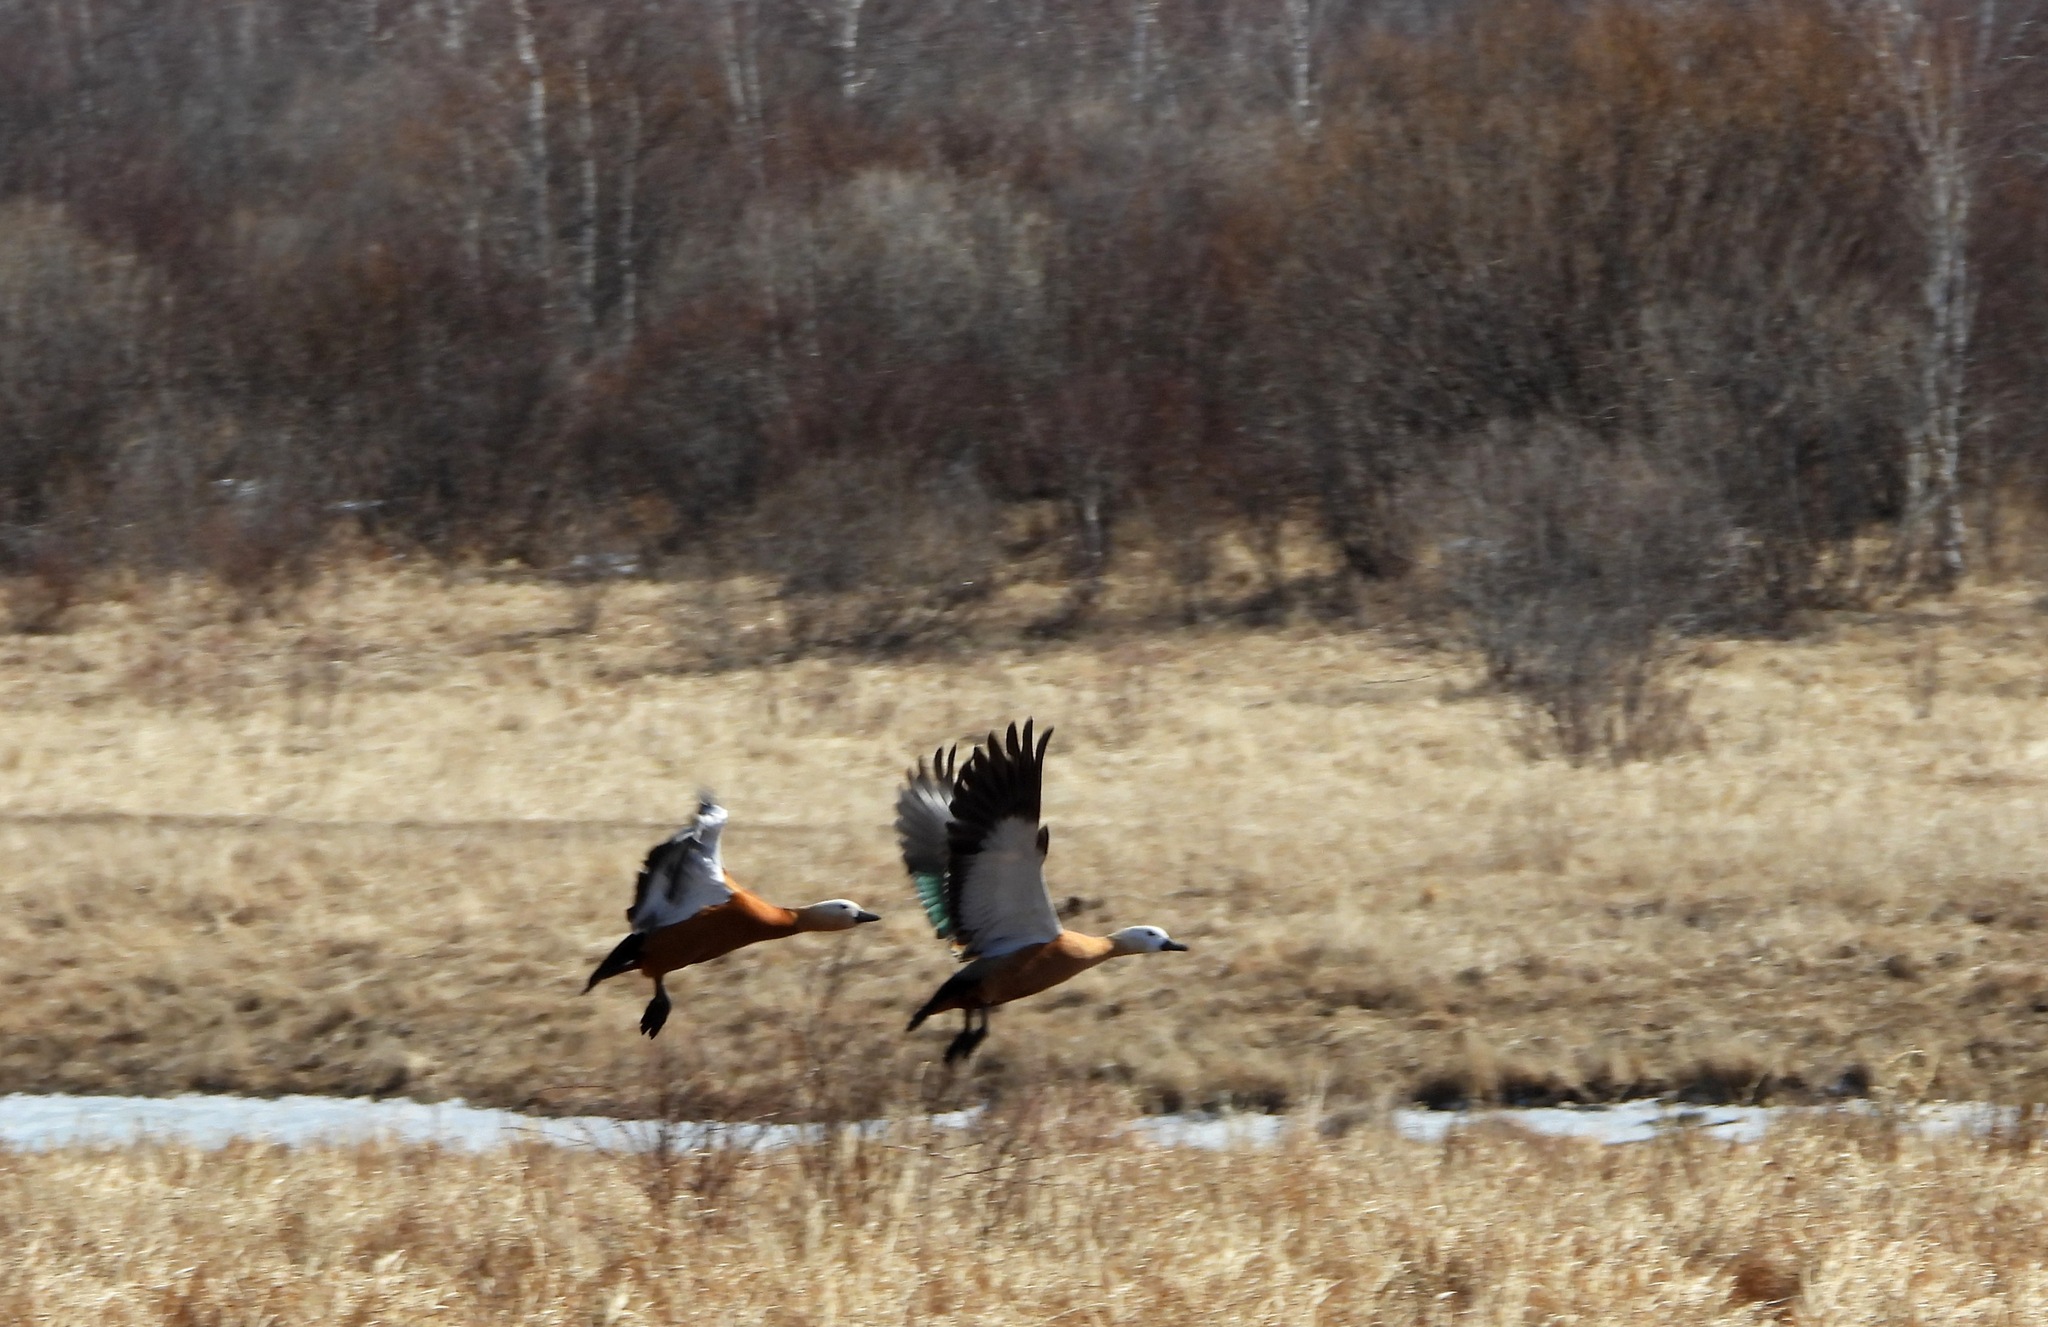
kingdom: Animalia
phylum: Chordata
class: Aves
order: Anseriformes
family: Anatidae
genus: Tadorna
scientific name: Tadorna ferruginea
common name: Ruddy shelduck
